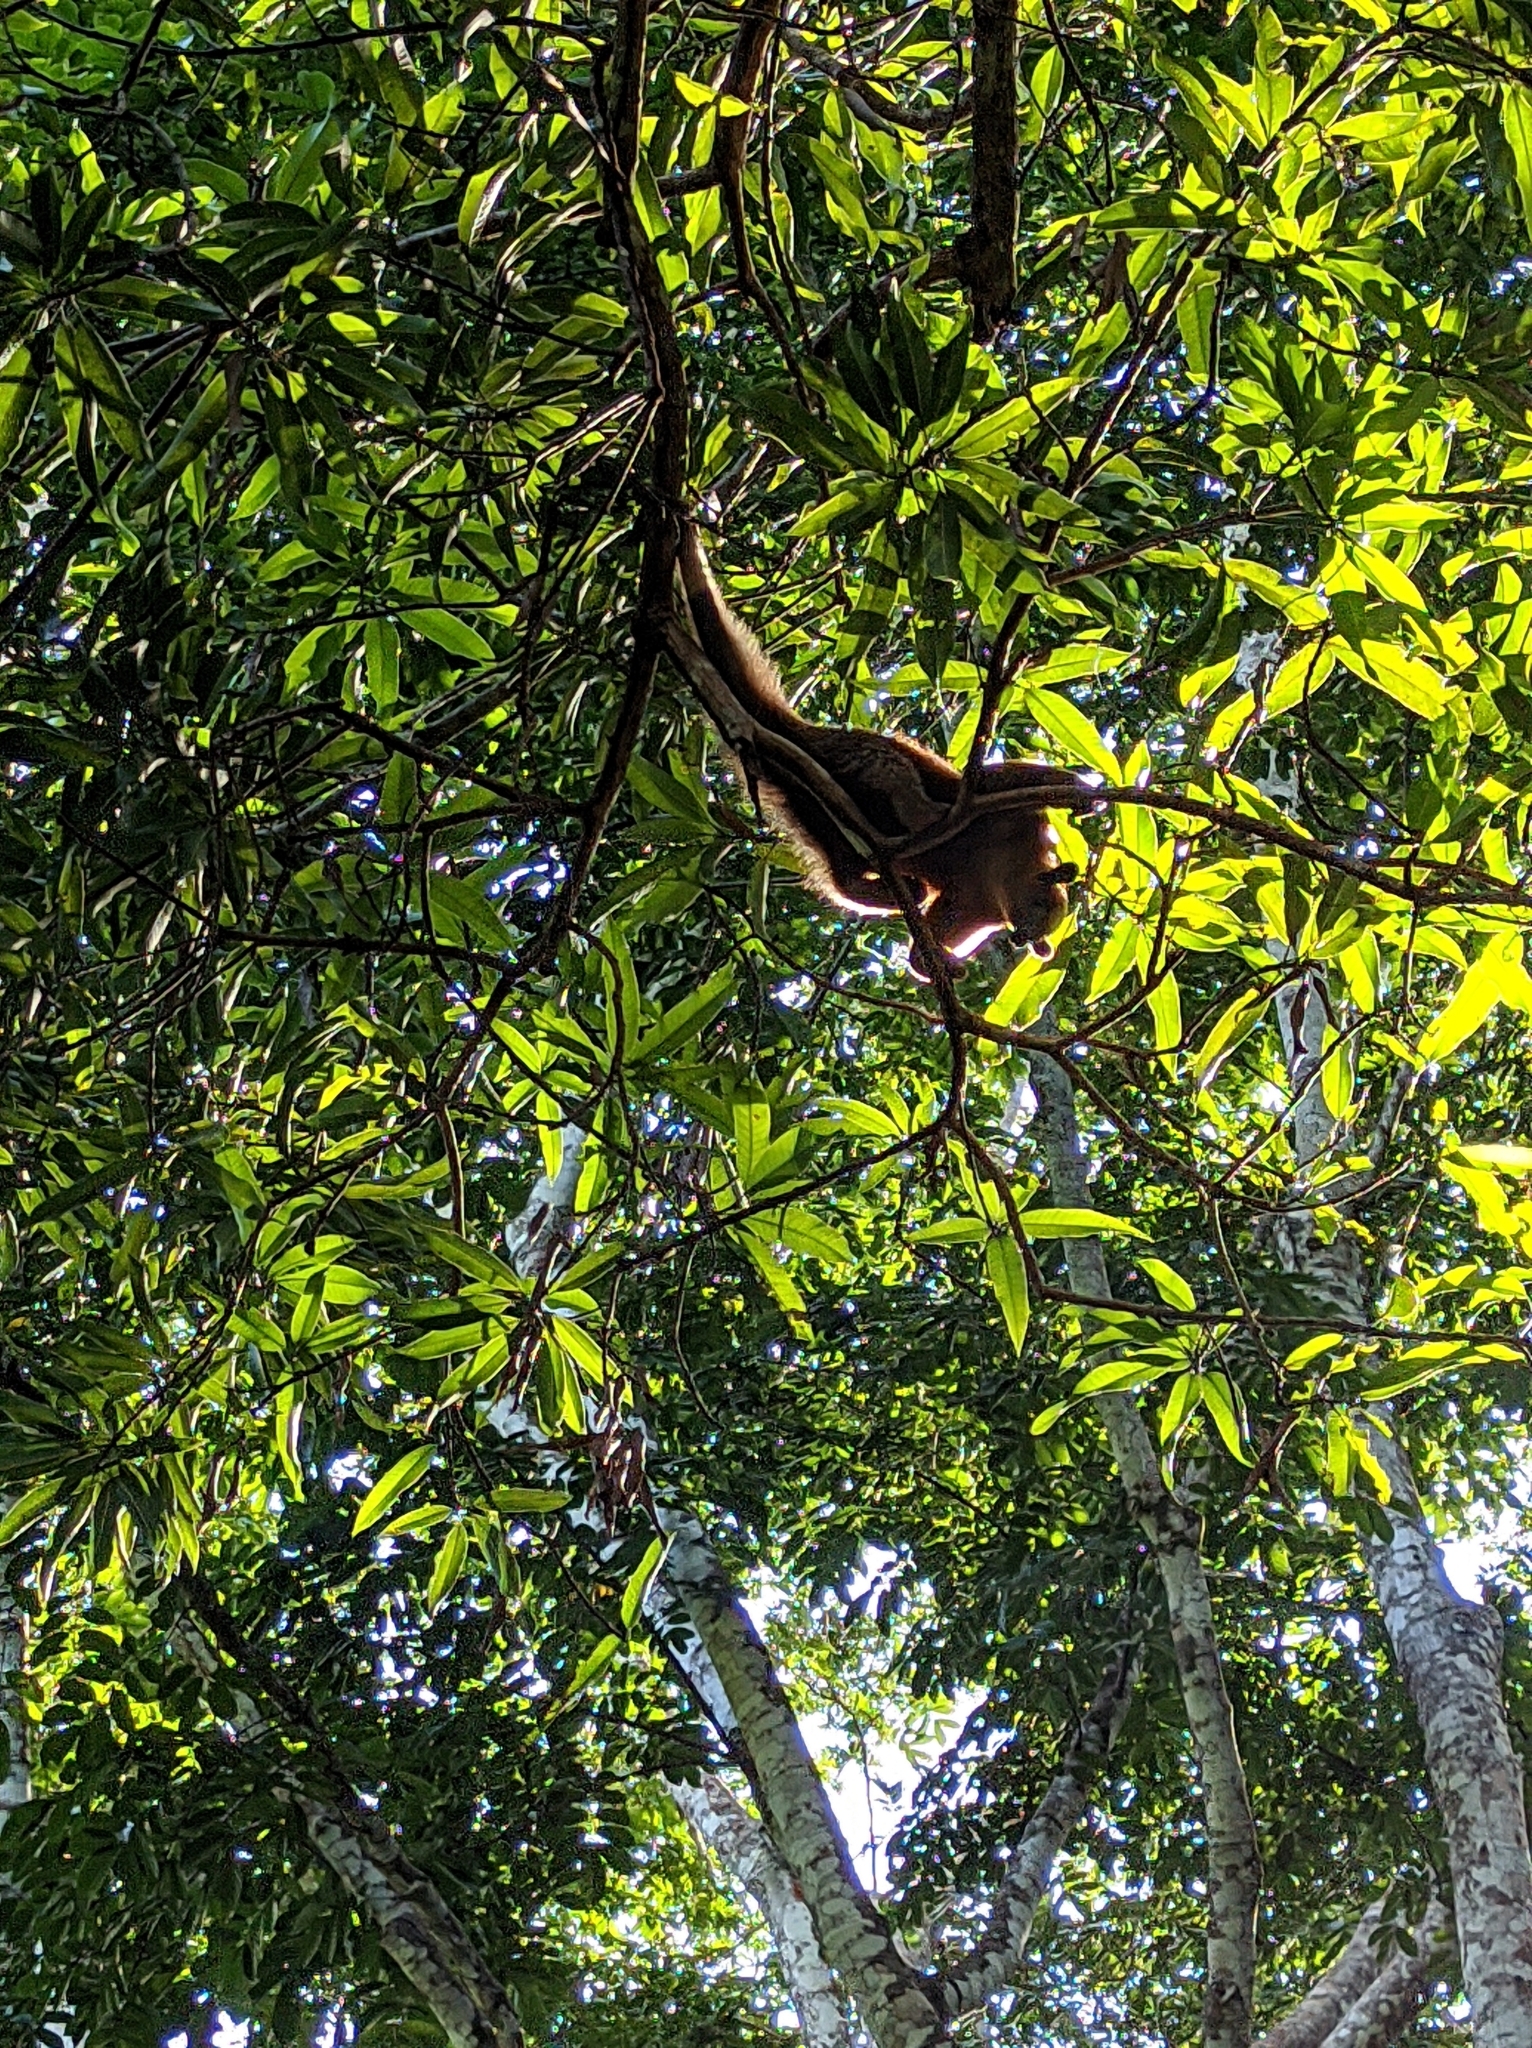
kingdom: Animalia
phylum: Chordata
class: Mammalia
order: Pilosa
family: Myrmecophagidae
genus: Tamandua
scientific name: Tamandua mexicana
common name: Northern tamandua
